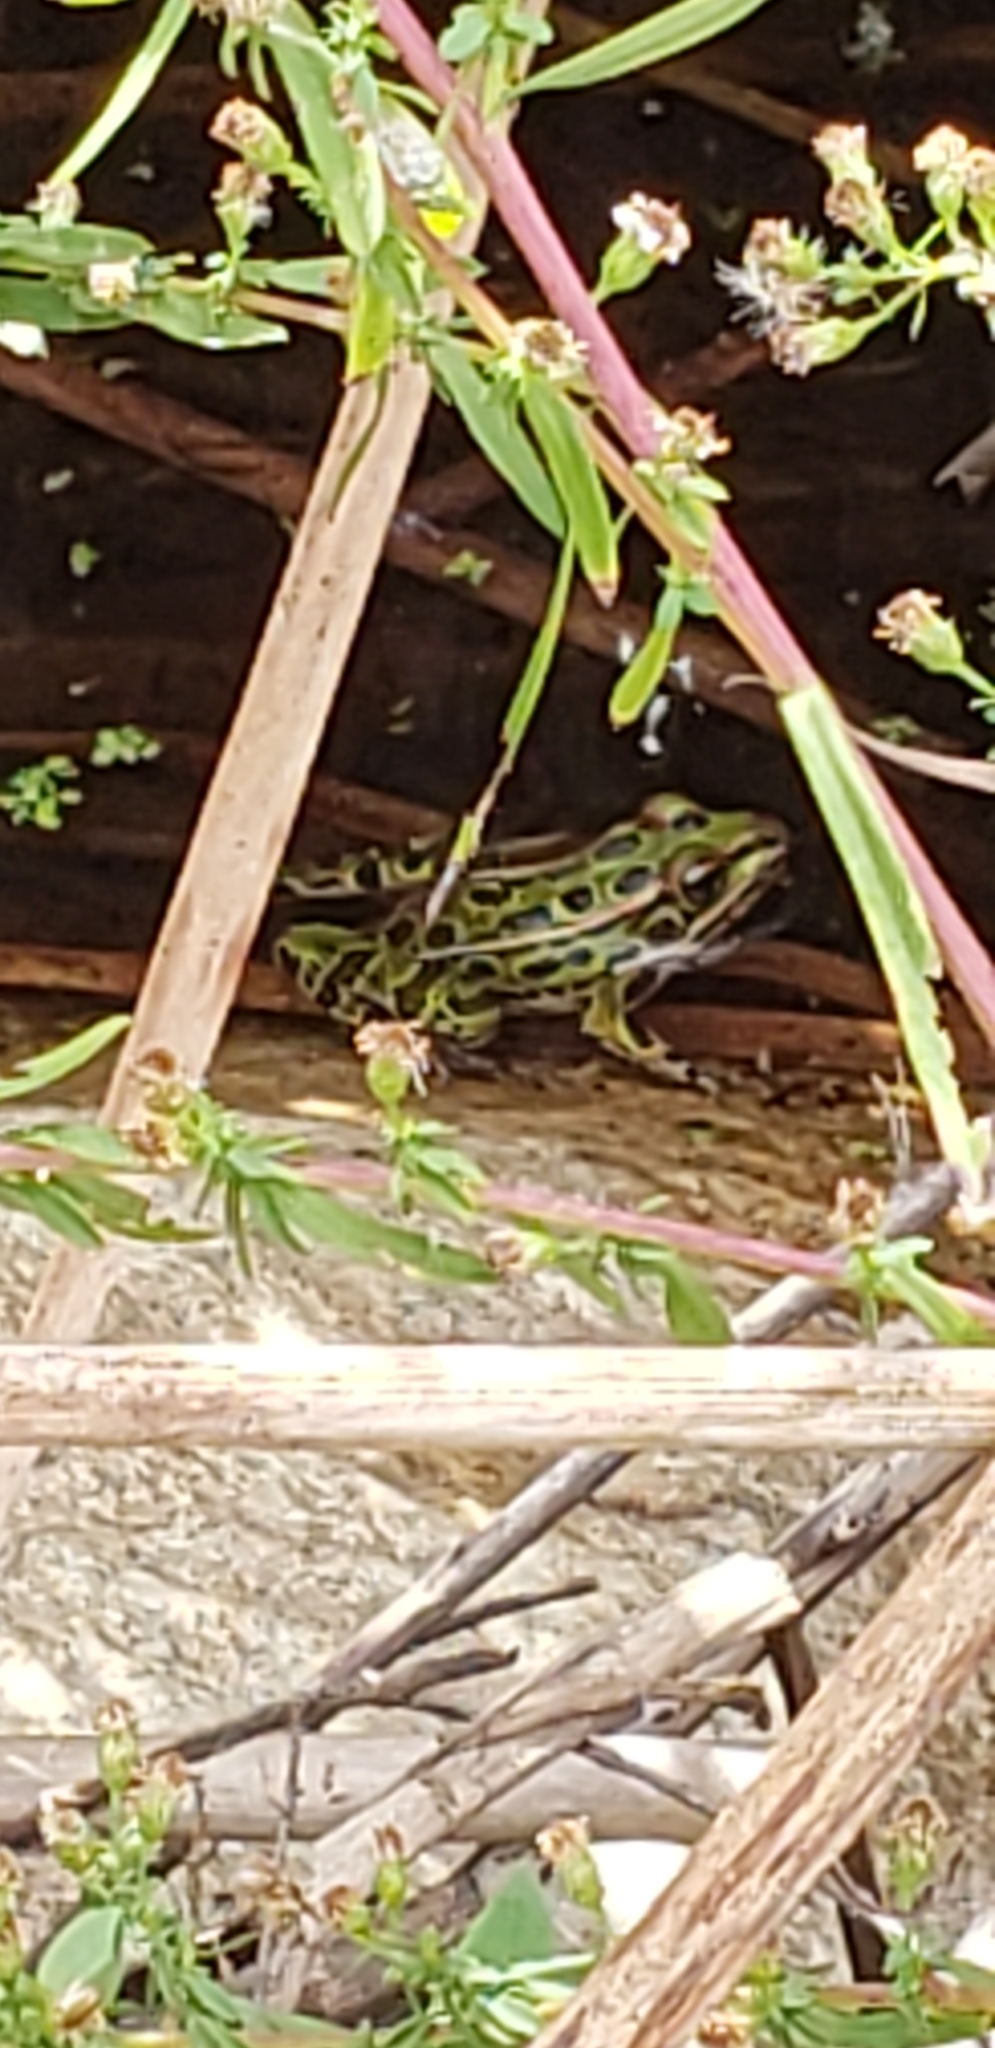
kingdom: Animalia
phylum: Chordata
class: Amphibia
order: Anura
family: Ranidae
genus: Lithobates
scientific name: Lithobates pipiens
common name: Northern leopard frog
